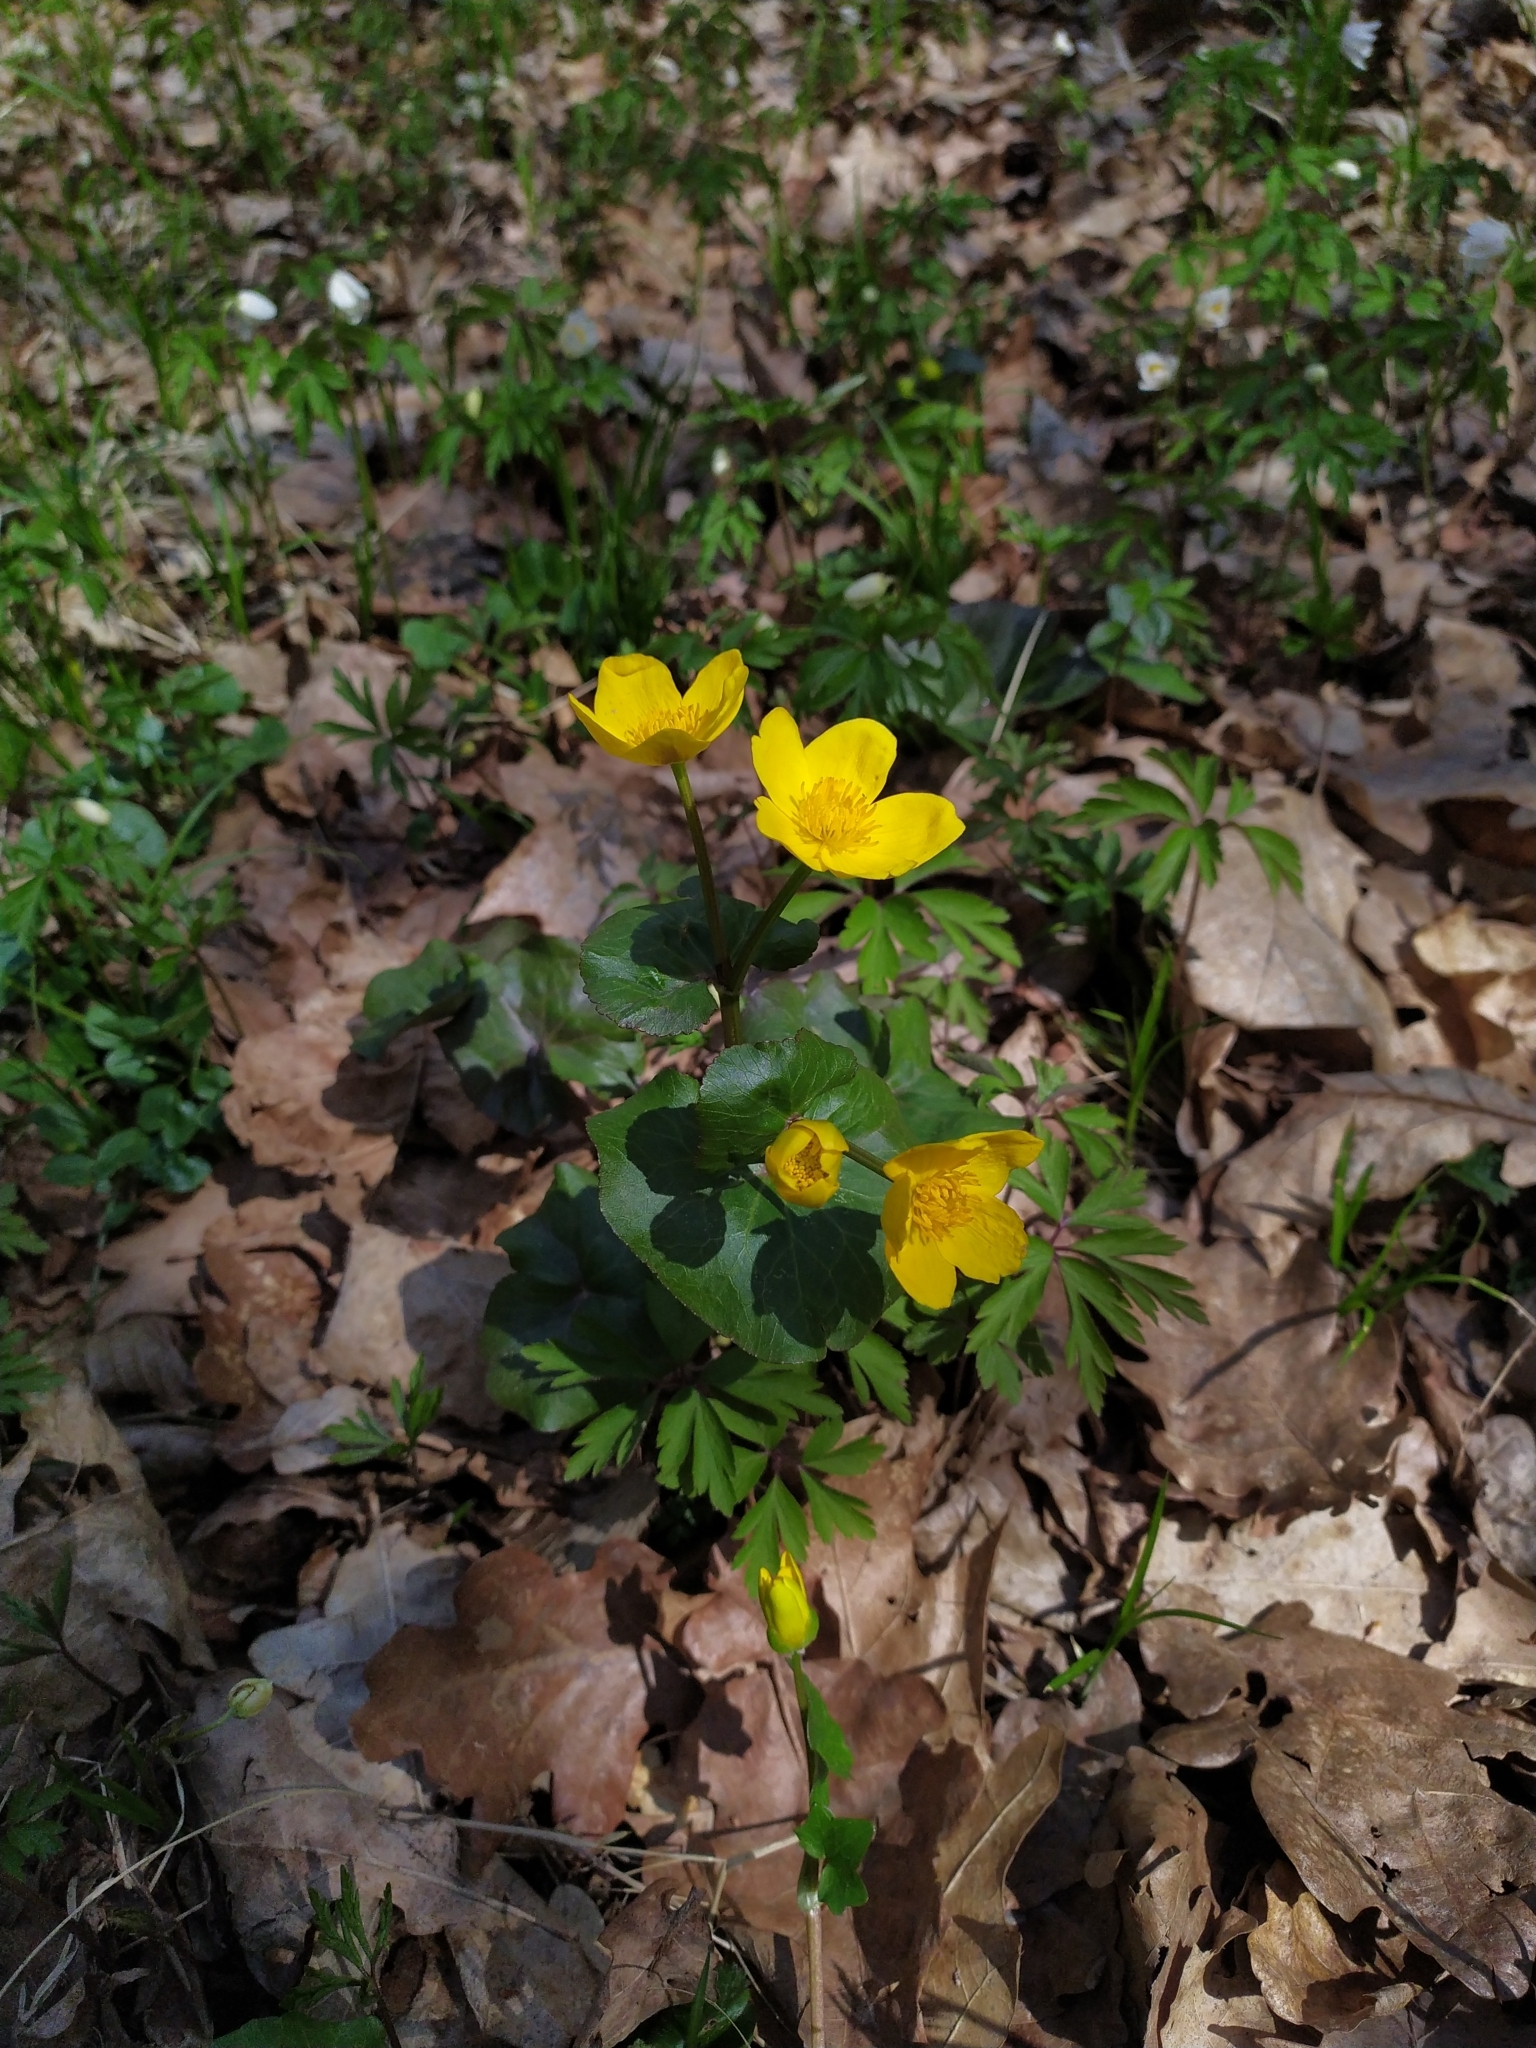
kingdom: Plantae
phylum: Tracheophyta
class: Magnoliopsida
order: Ranunculales
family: Ranunculaceae
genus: Caltha
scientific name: Caltha palustris
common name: Marsh marigold
